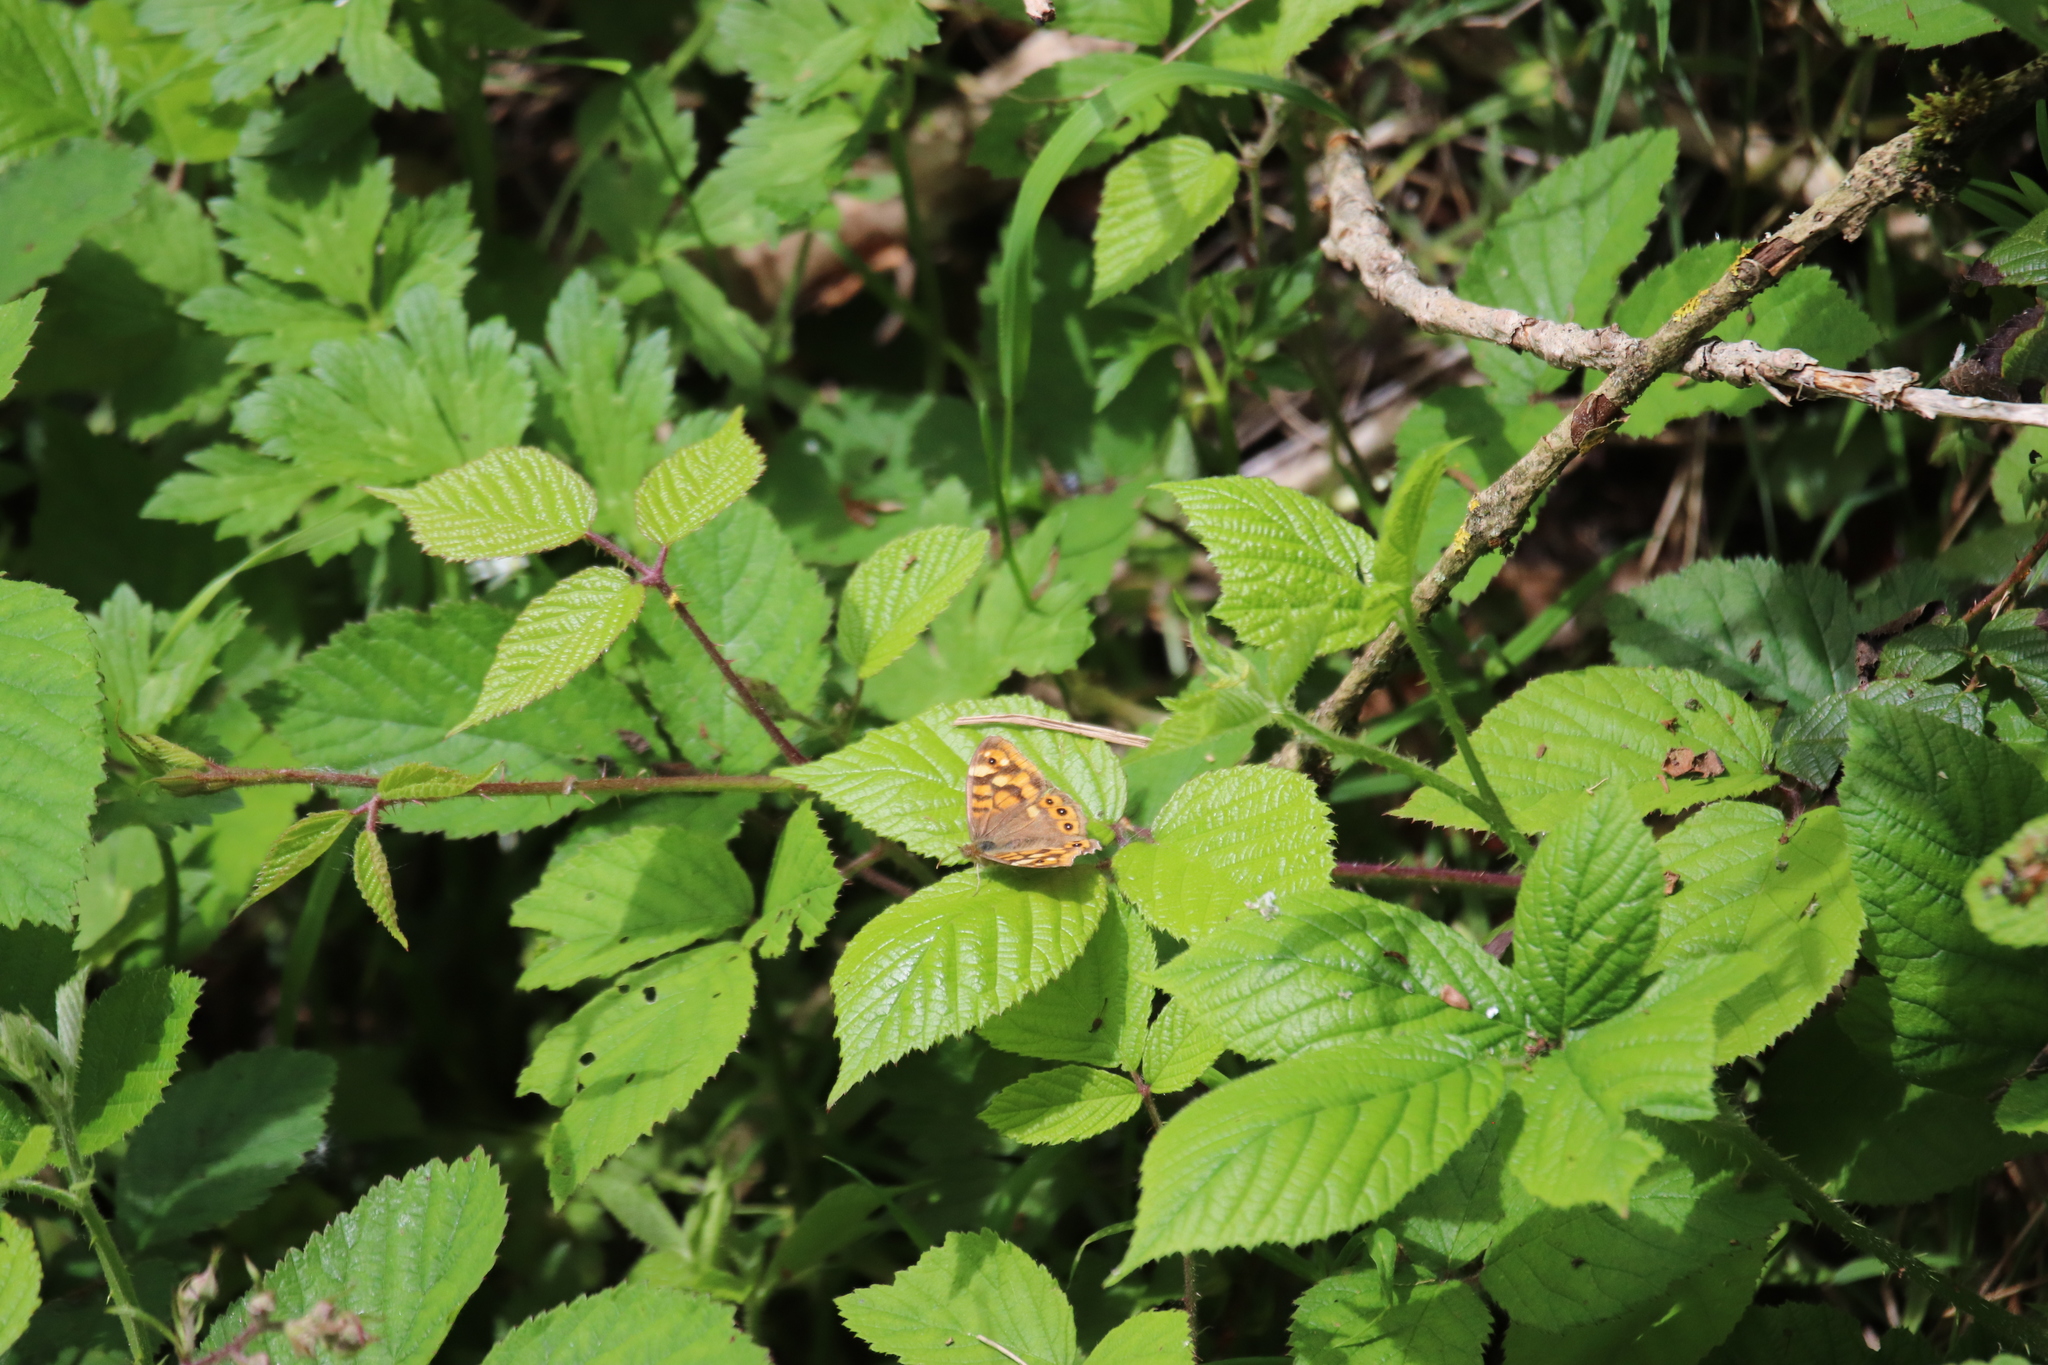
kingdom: Animalia
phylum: Arthropoda
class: Insecta
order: Lepidoptera
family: Nymphalidae
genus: Pararge
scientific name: Pararge aegeria
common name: Speckled wood
